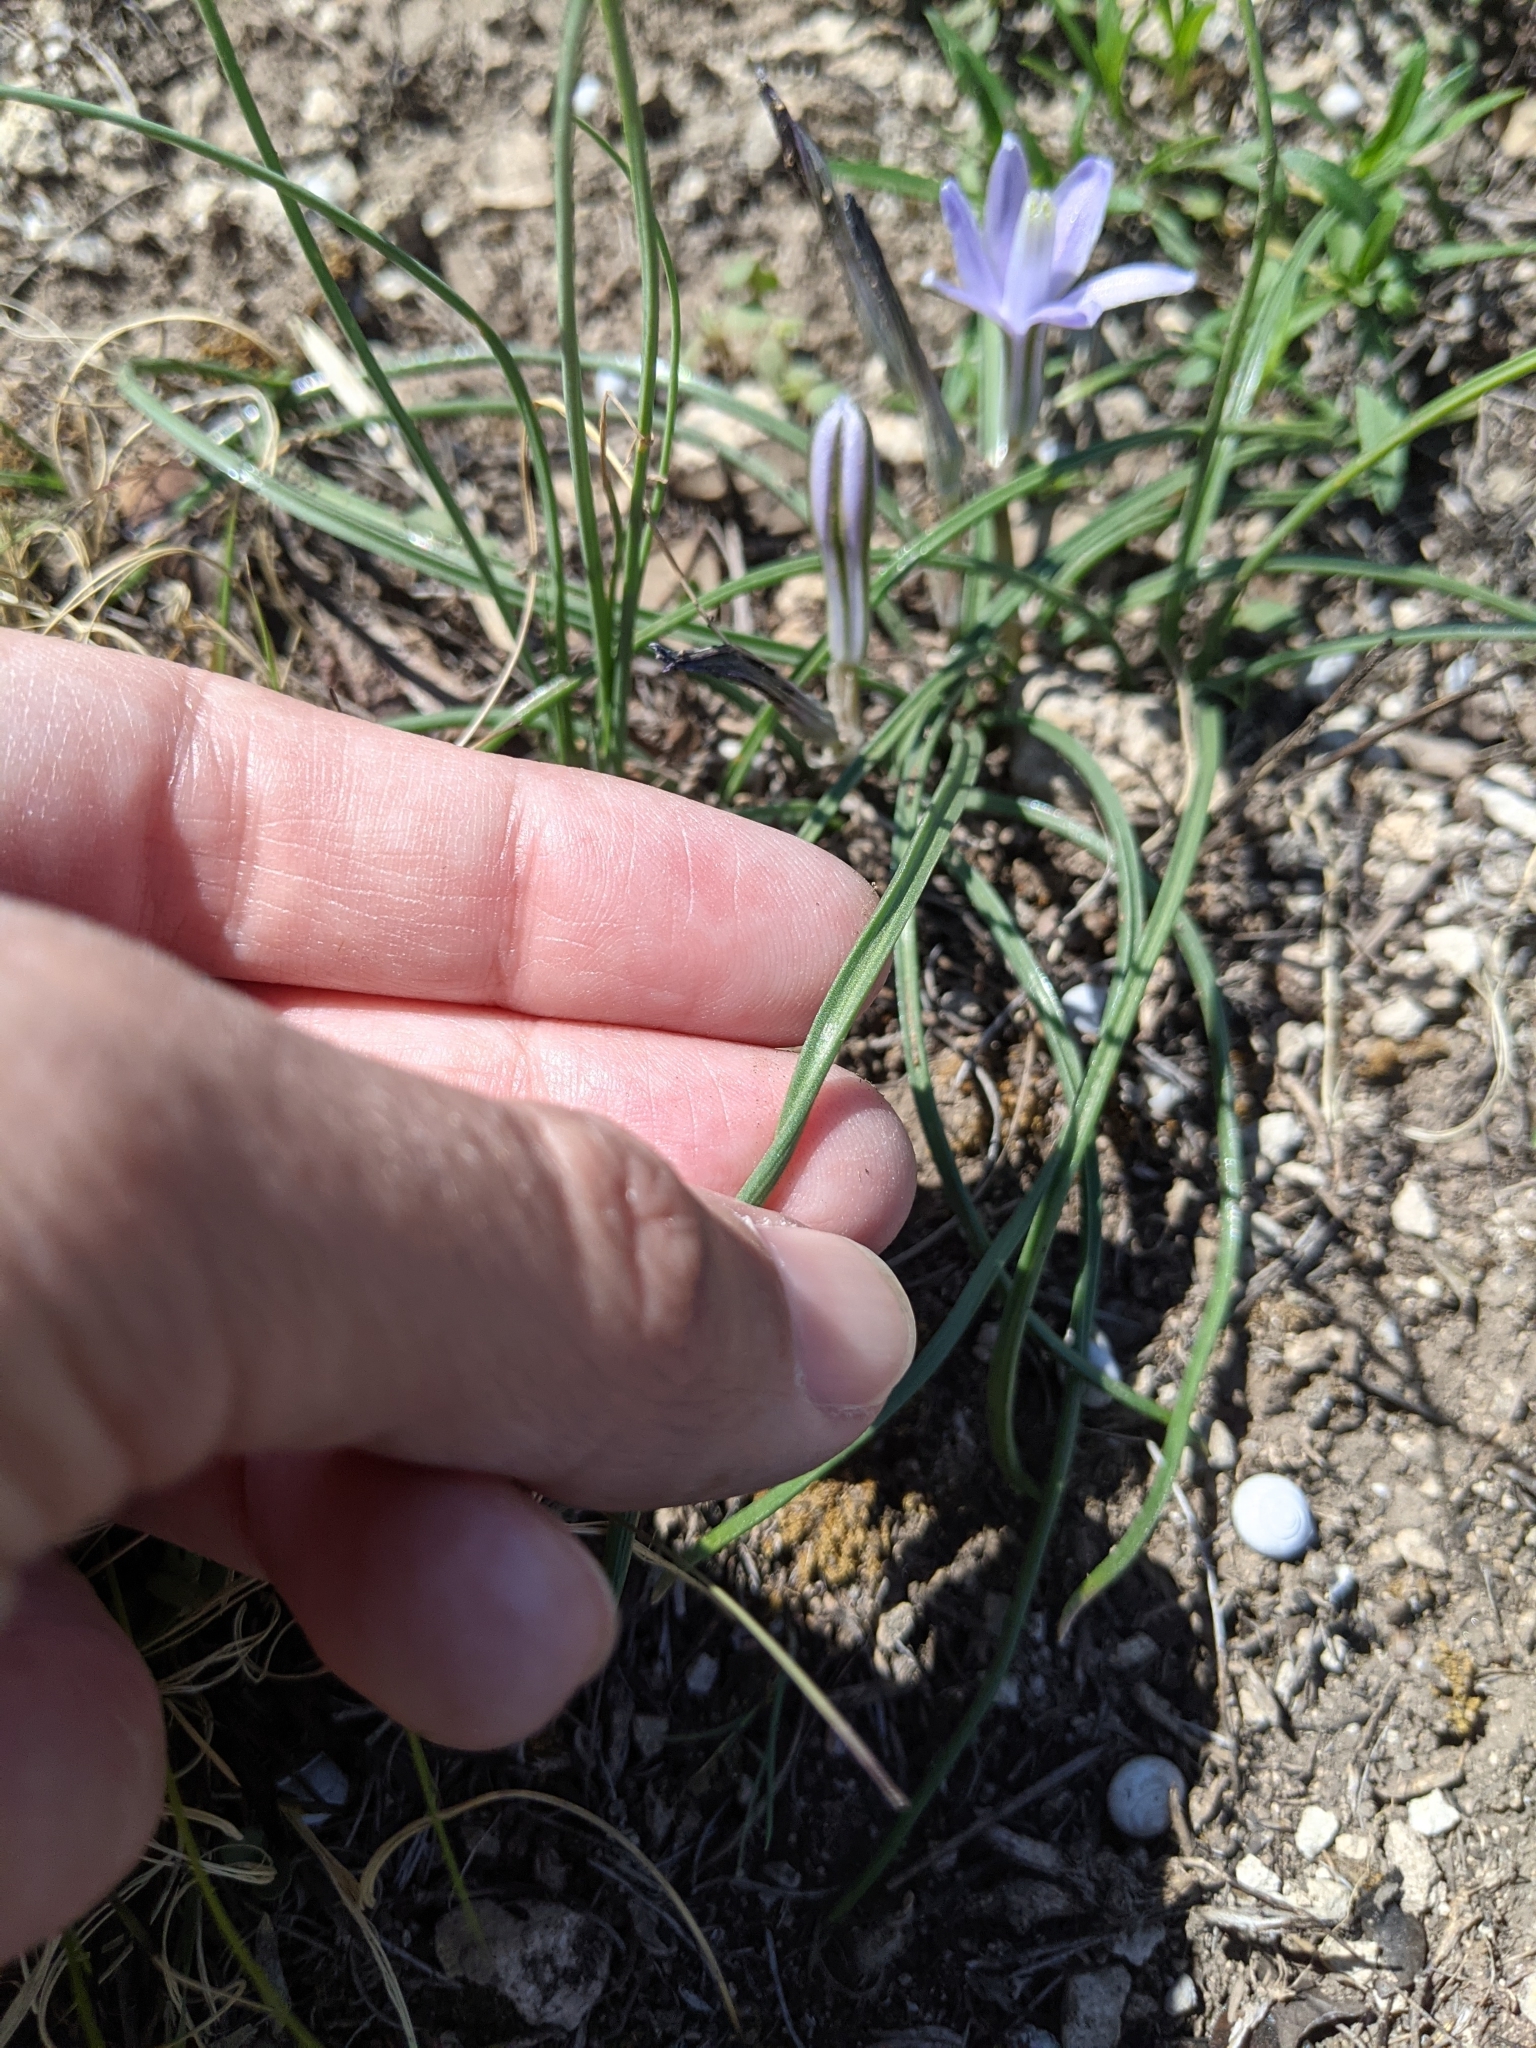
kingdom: Plantae
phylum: Tracheophyta
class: Liliopsida
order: Asparagales
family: Asparagaceae
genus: Androstephium
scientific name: Androstephium coeruleum
